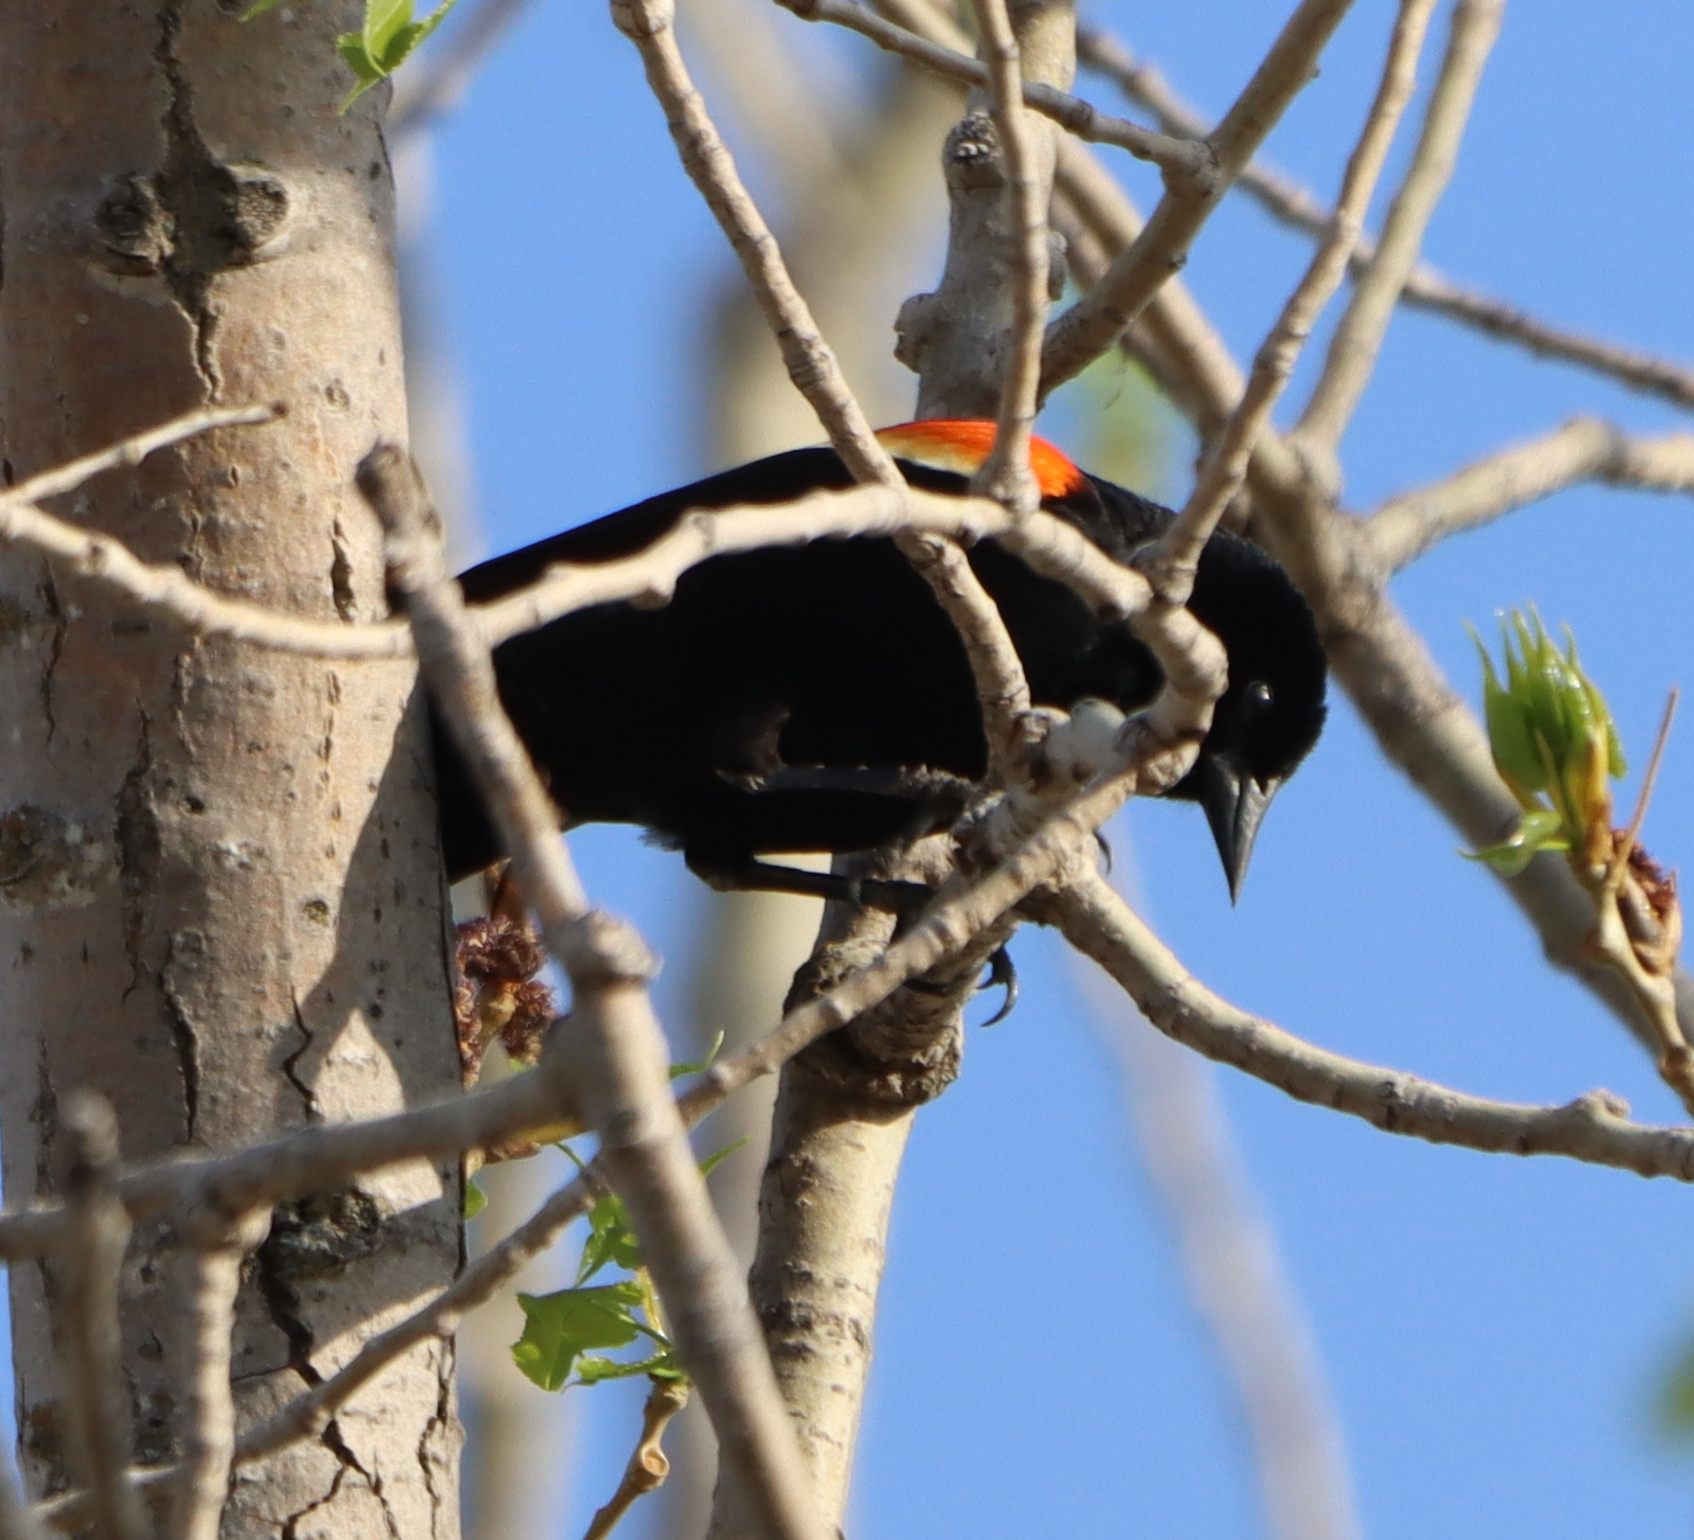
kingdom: Animalia
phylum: Chordata
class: Aves
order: Passeriformes
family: Icteridae
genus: Agelaius
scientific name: Agelaius phoeniceus
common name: Red-winged blackbird
